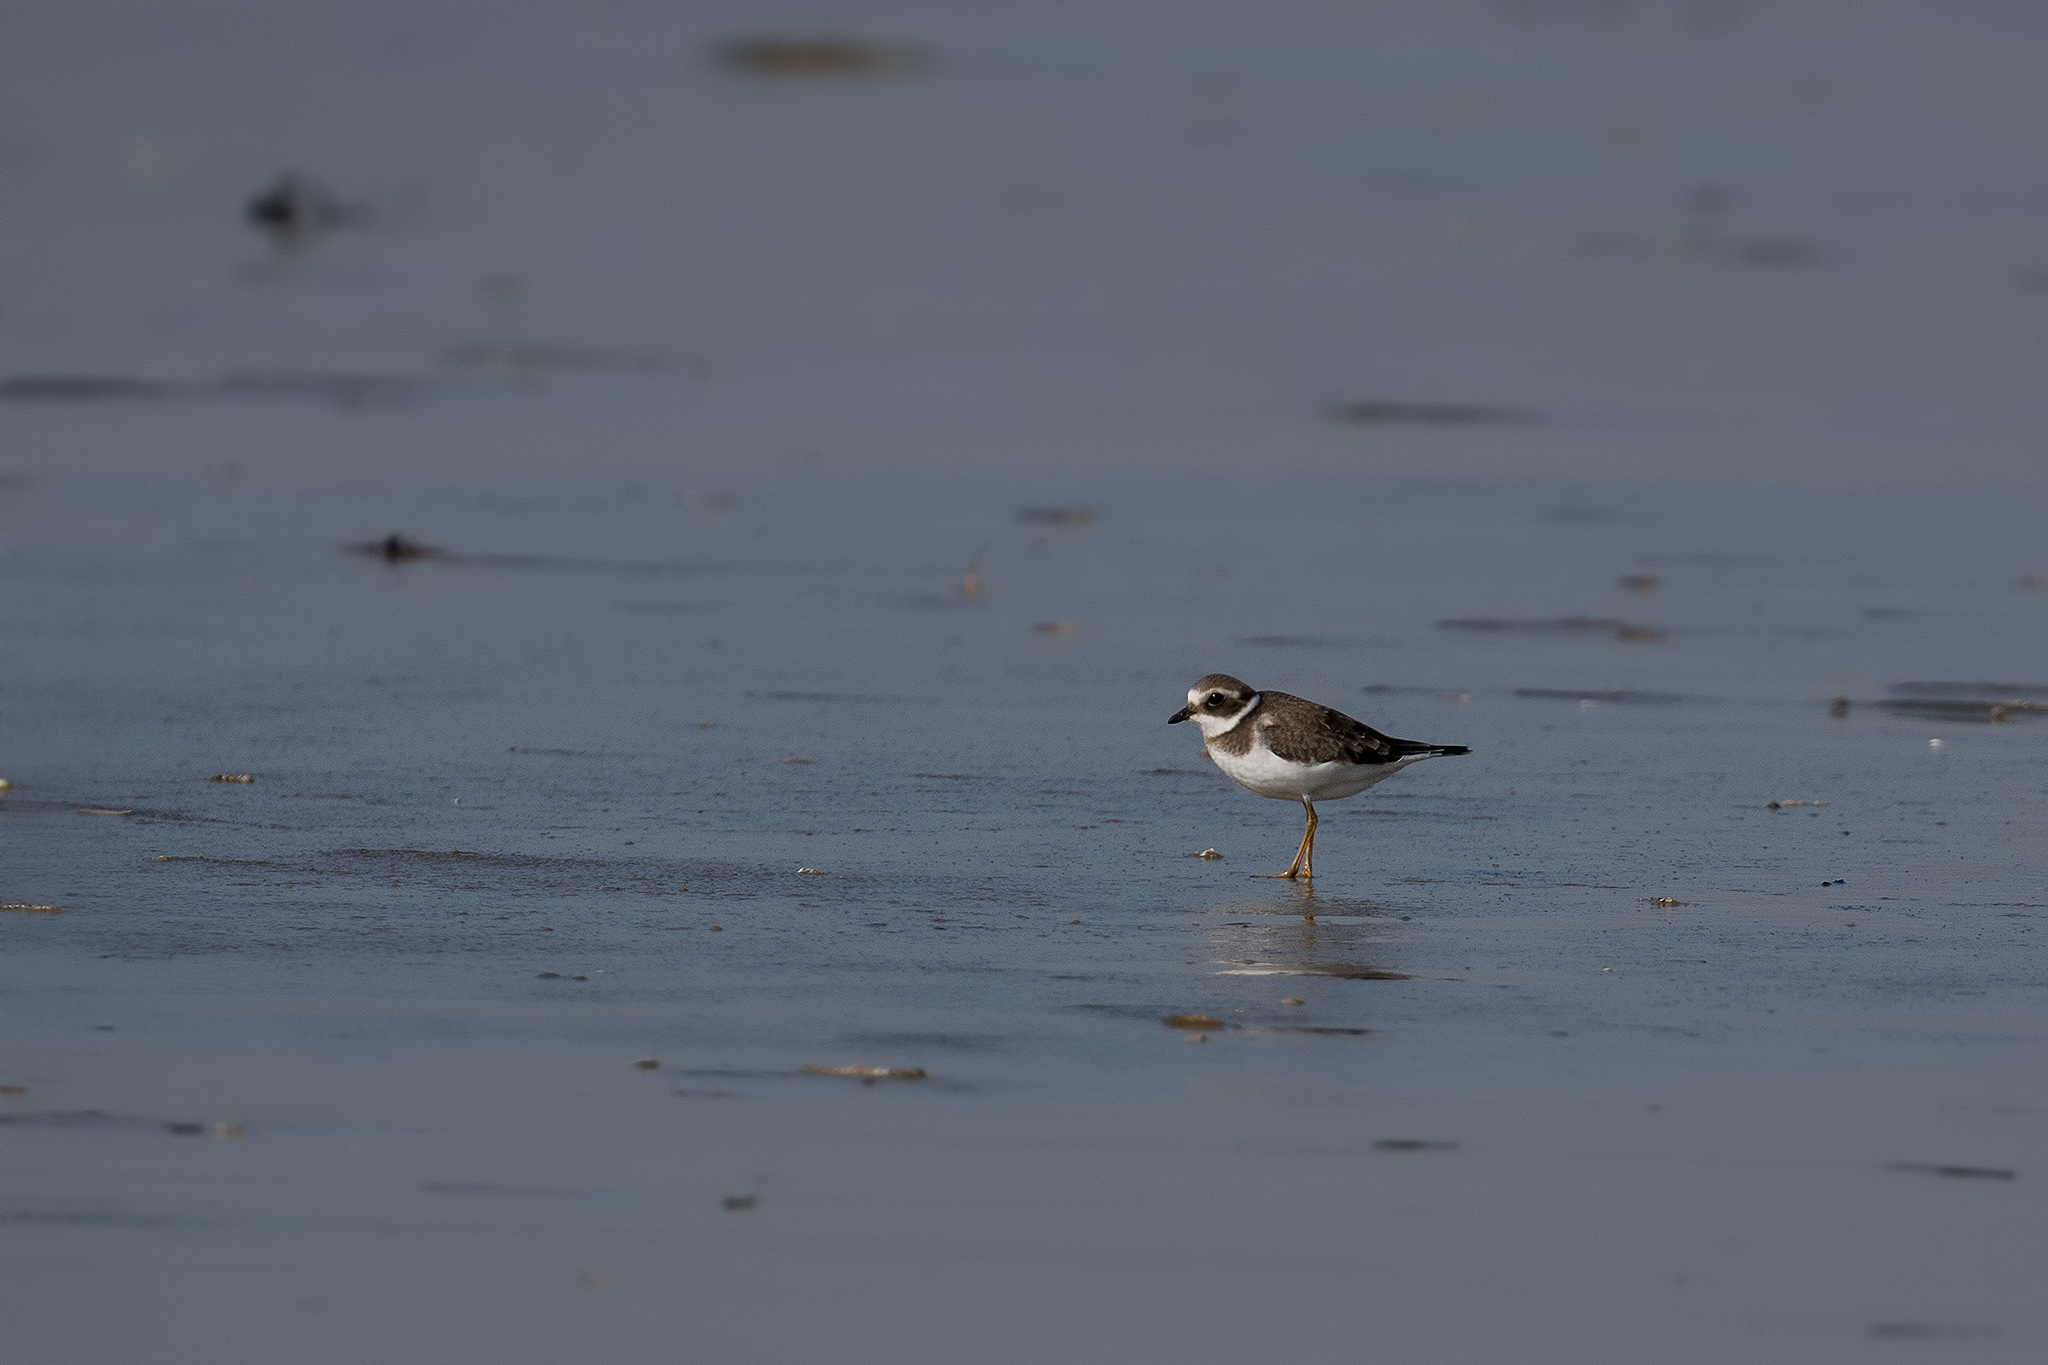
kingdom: Animalia
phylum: Chordata
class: Aves
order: Charadriiformes
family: Charadriidae
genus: Charadrius
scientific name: Charadrius hiaticula
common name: Common ringed plover
